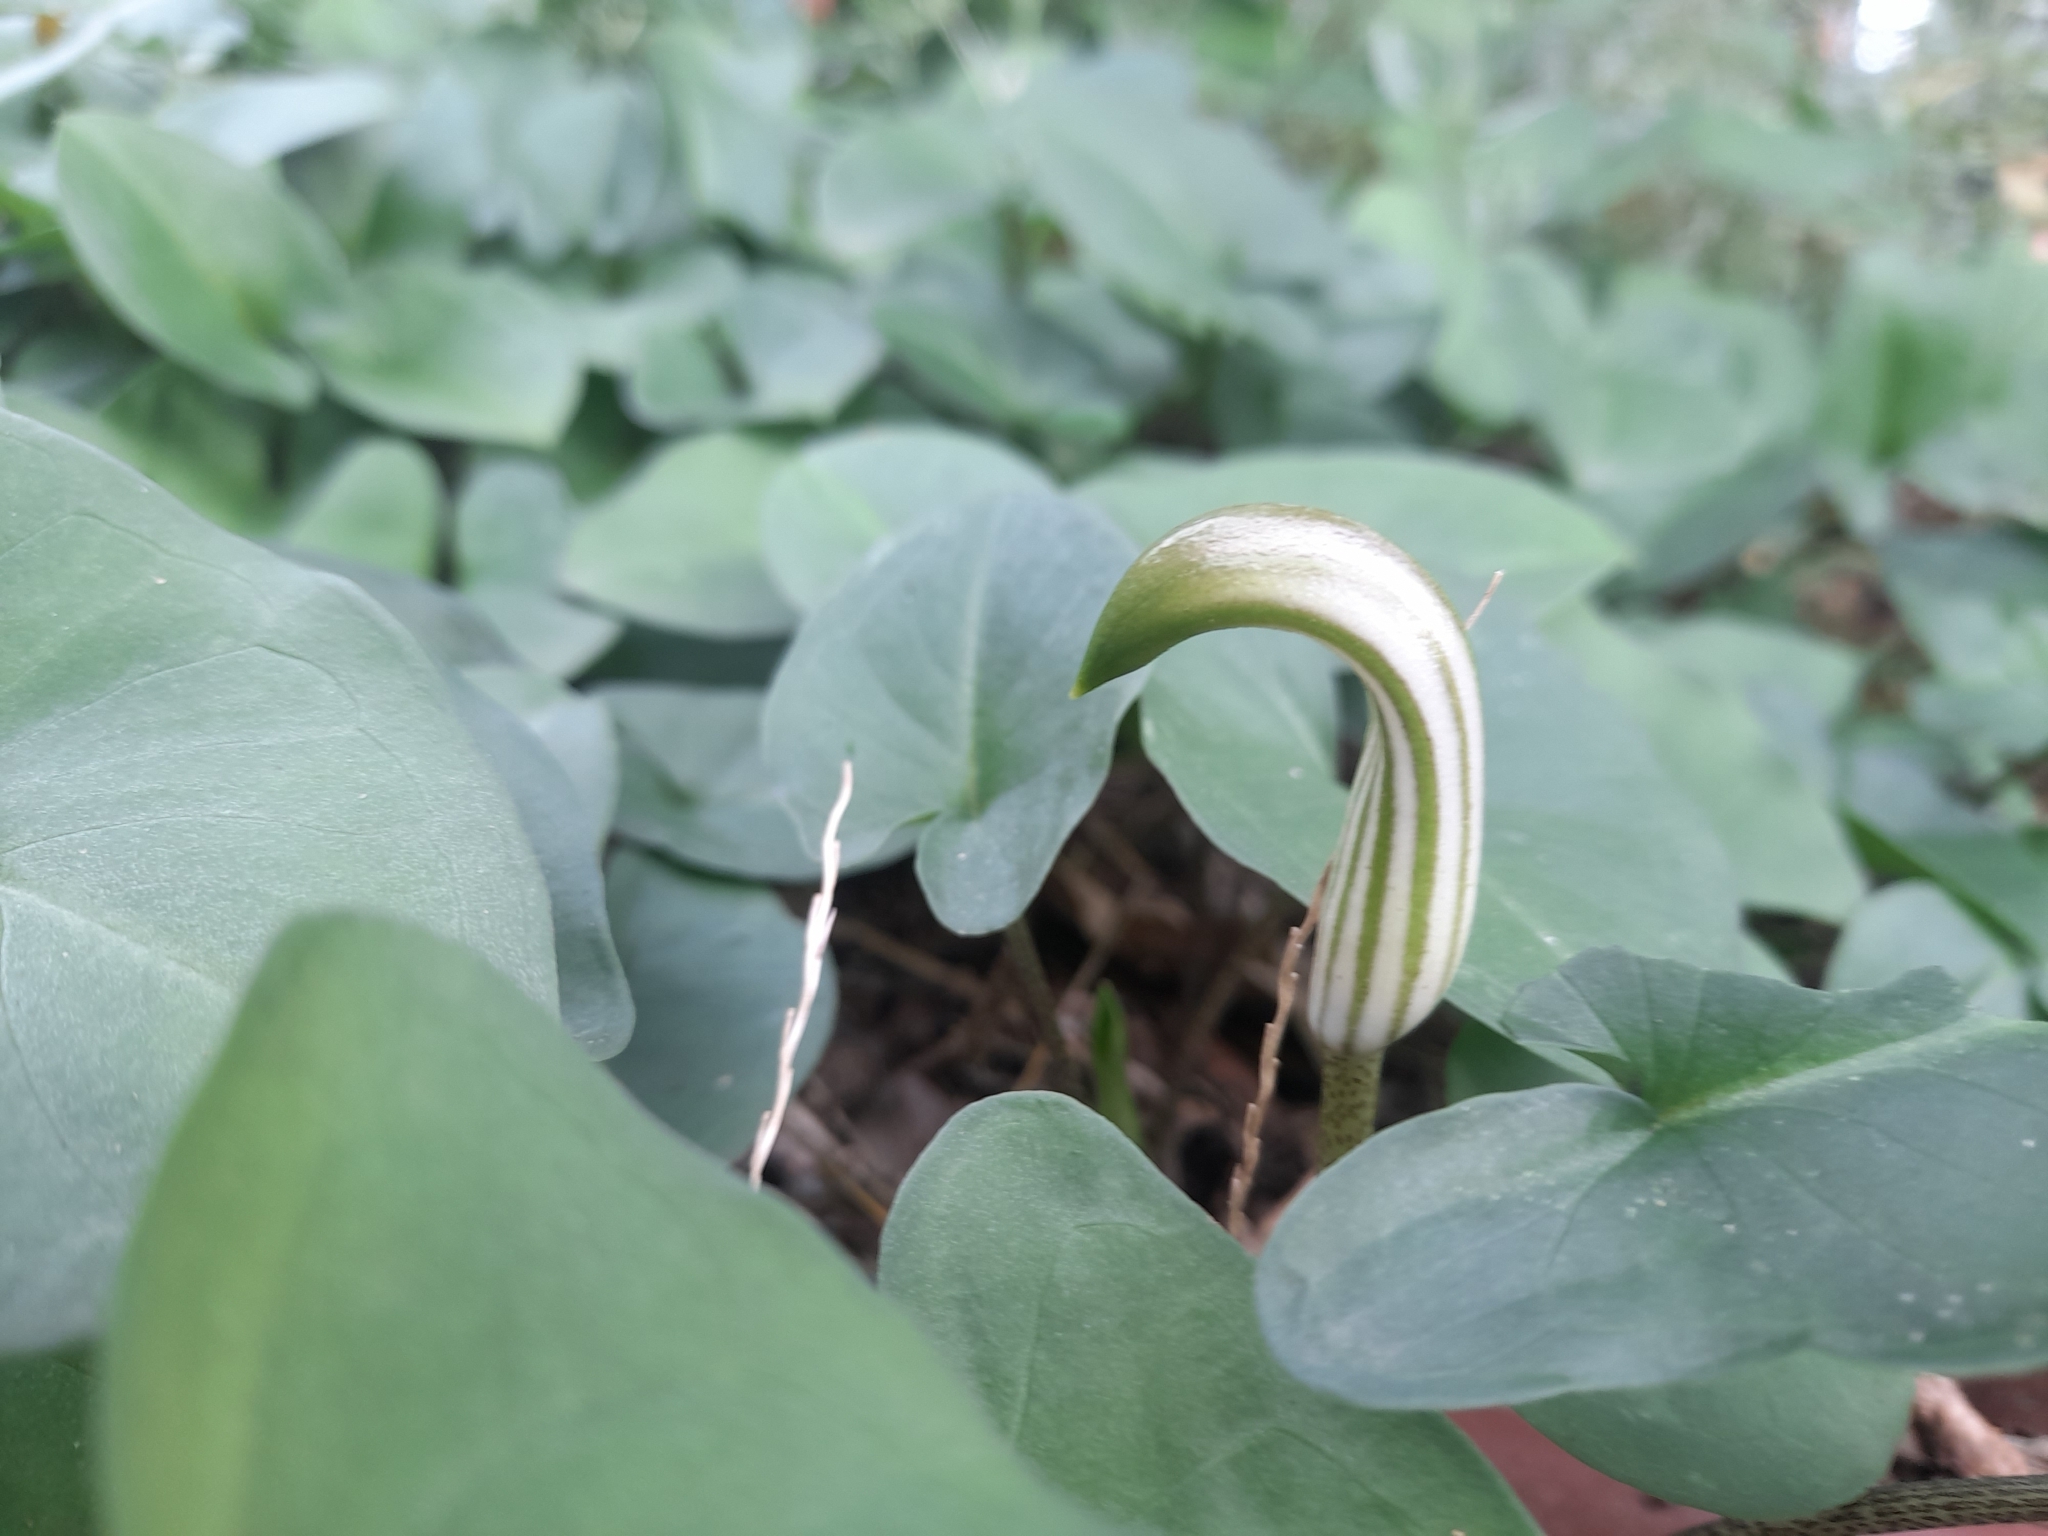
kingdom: Plantae
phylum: Tracheophyta
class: Liliopsida
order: Alismatales
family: Araceae
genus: Arisarum
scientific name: Arisarum vulgare
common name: Common arisarum
